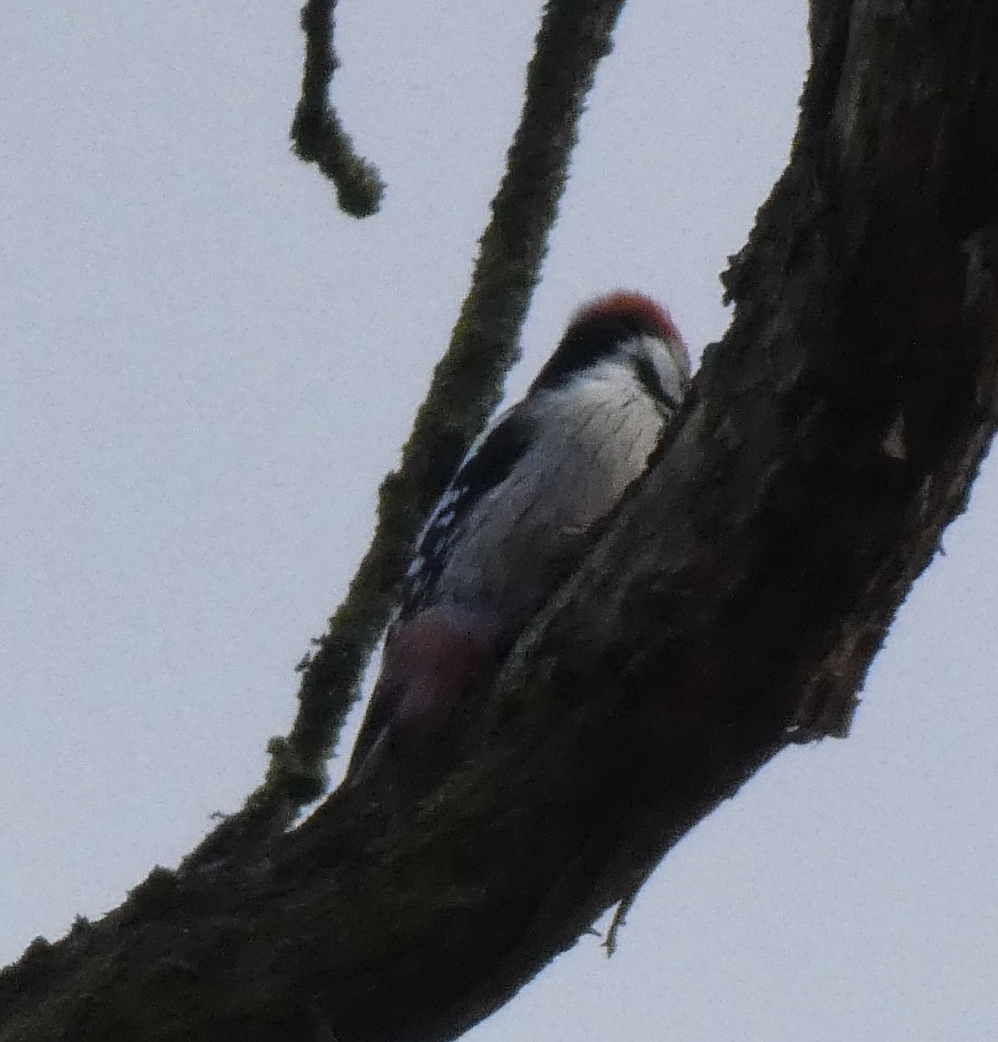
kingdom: Animalia
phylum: Chordata
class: Aves
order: Piciformes
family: Picidae
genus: Dendrocoptes
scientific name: Dendrocoptes medius
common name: Middle spotted woodpecker
